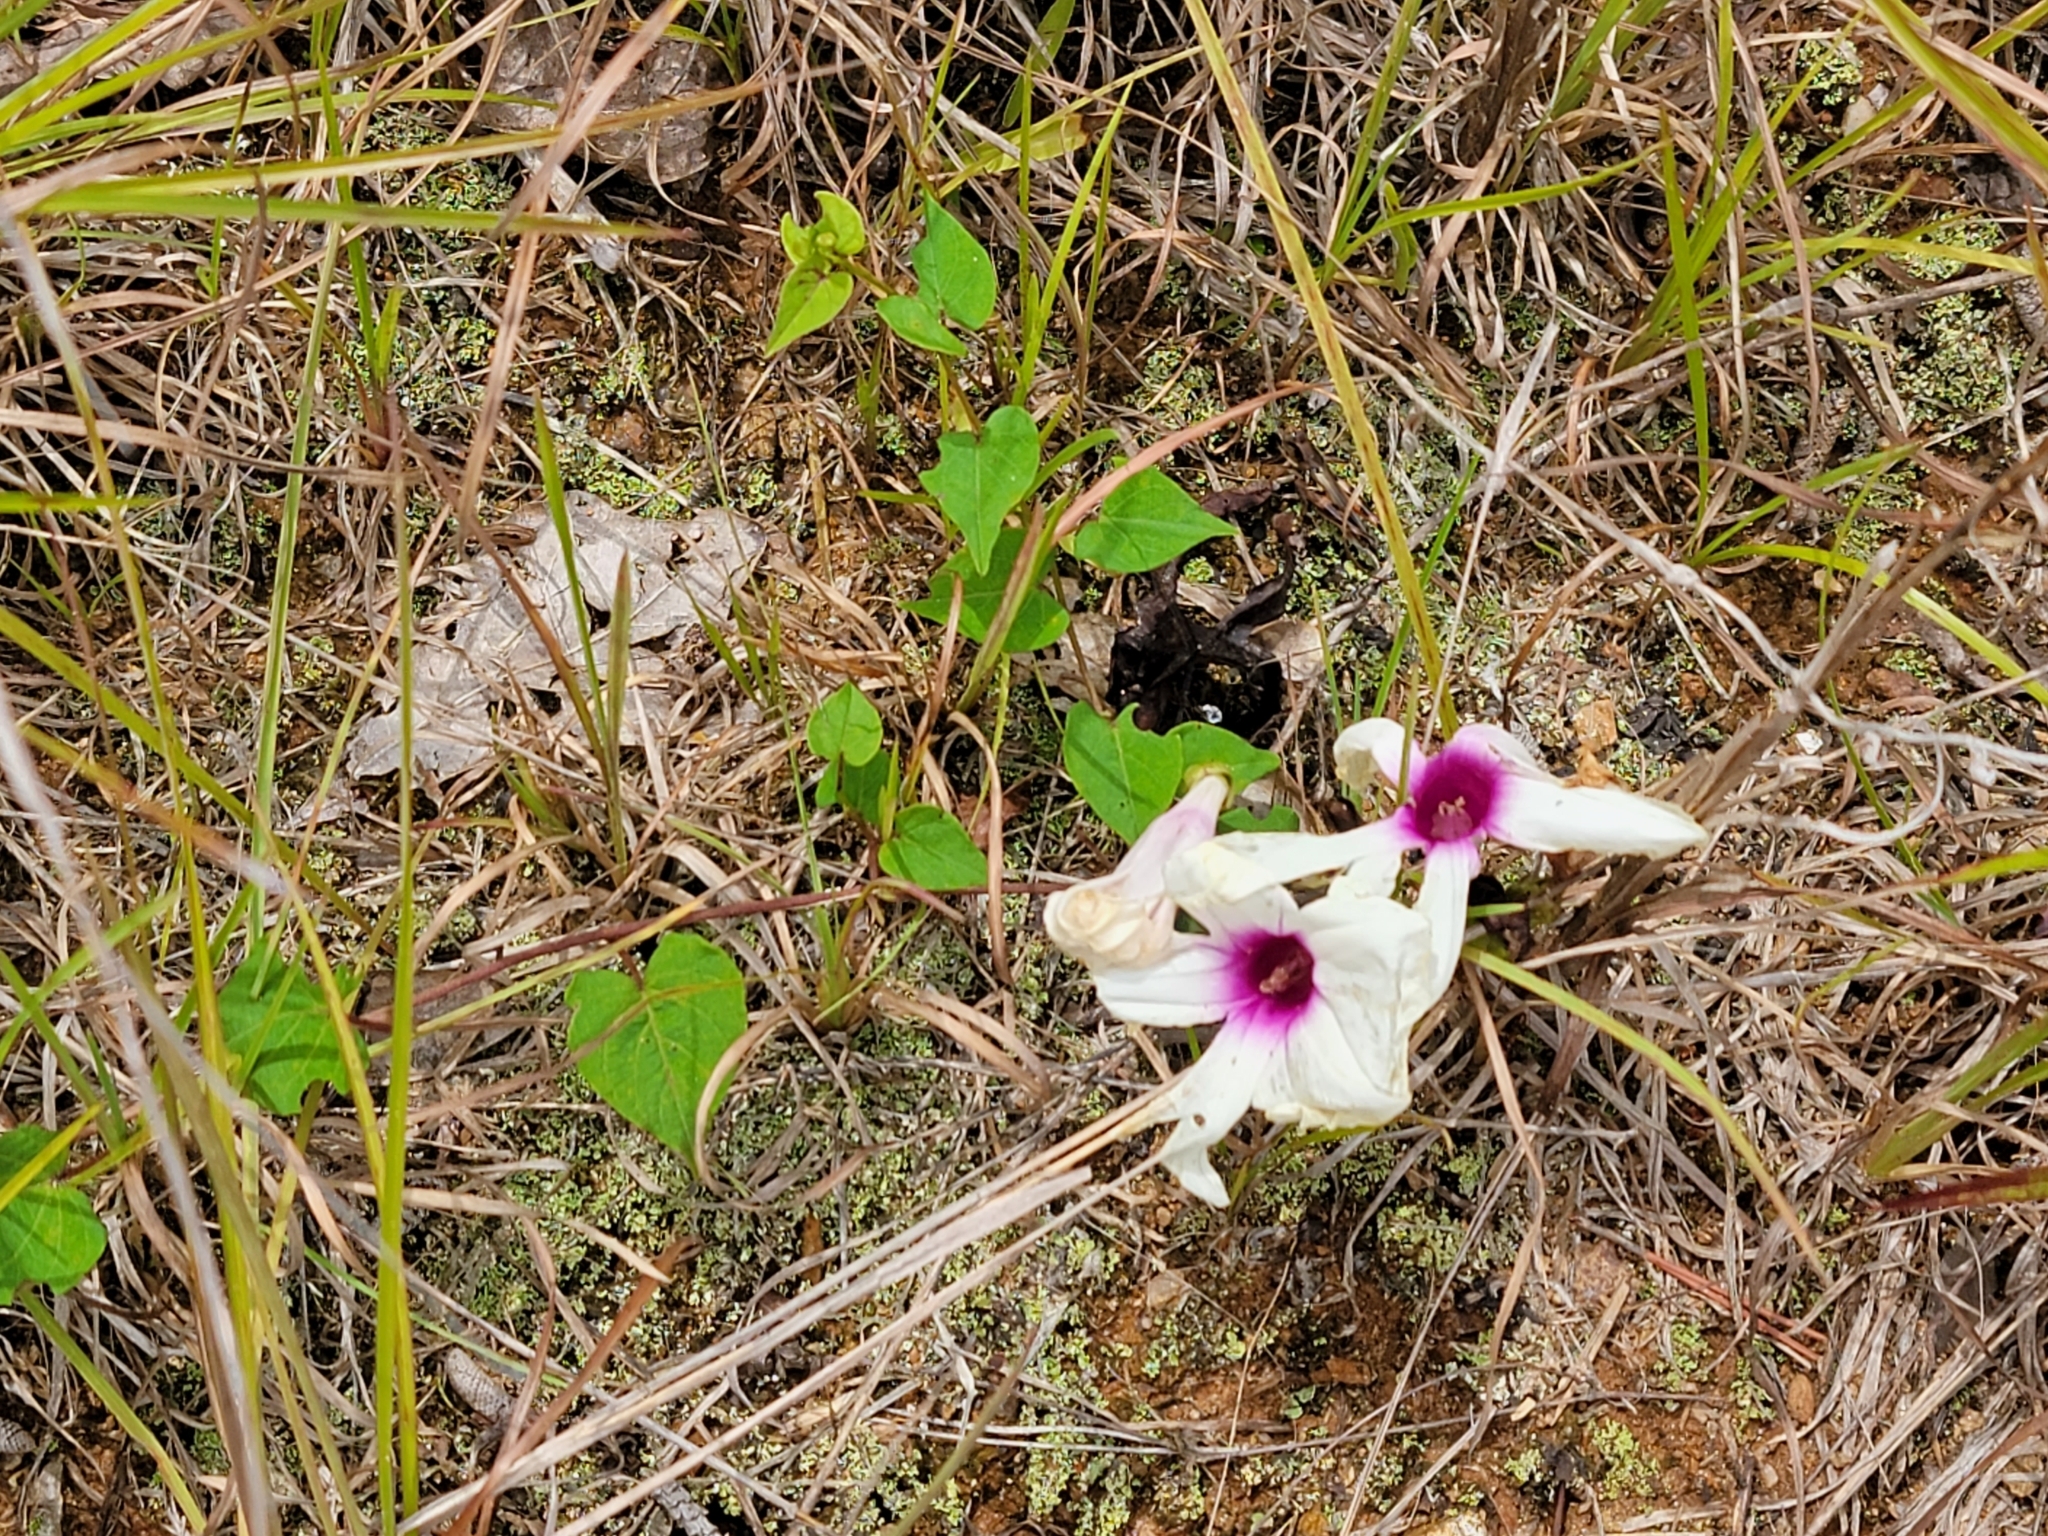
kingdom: Plantae
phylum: Tracheophyta
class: Magnoliopsida
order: Solanales
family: Convolvulaceae
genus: Ipomoea
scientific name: Ipomoea pandurata
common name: Man-of-the-earth
